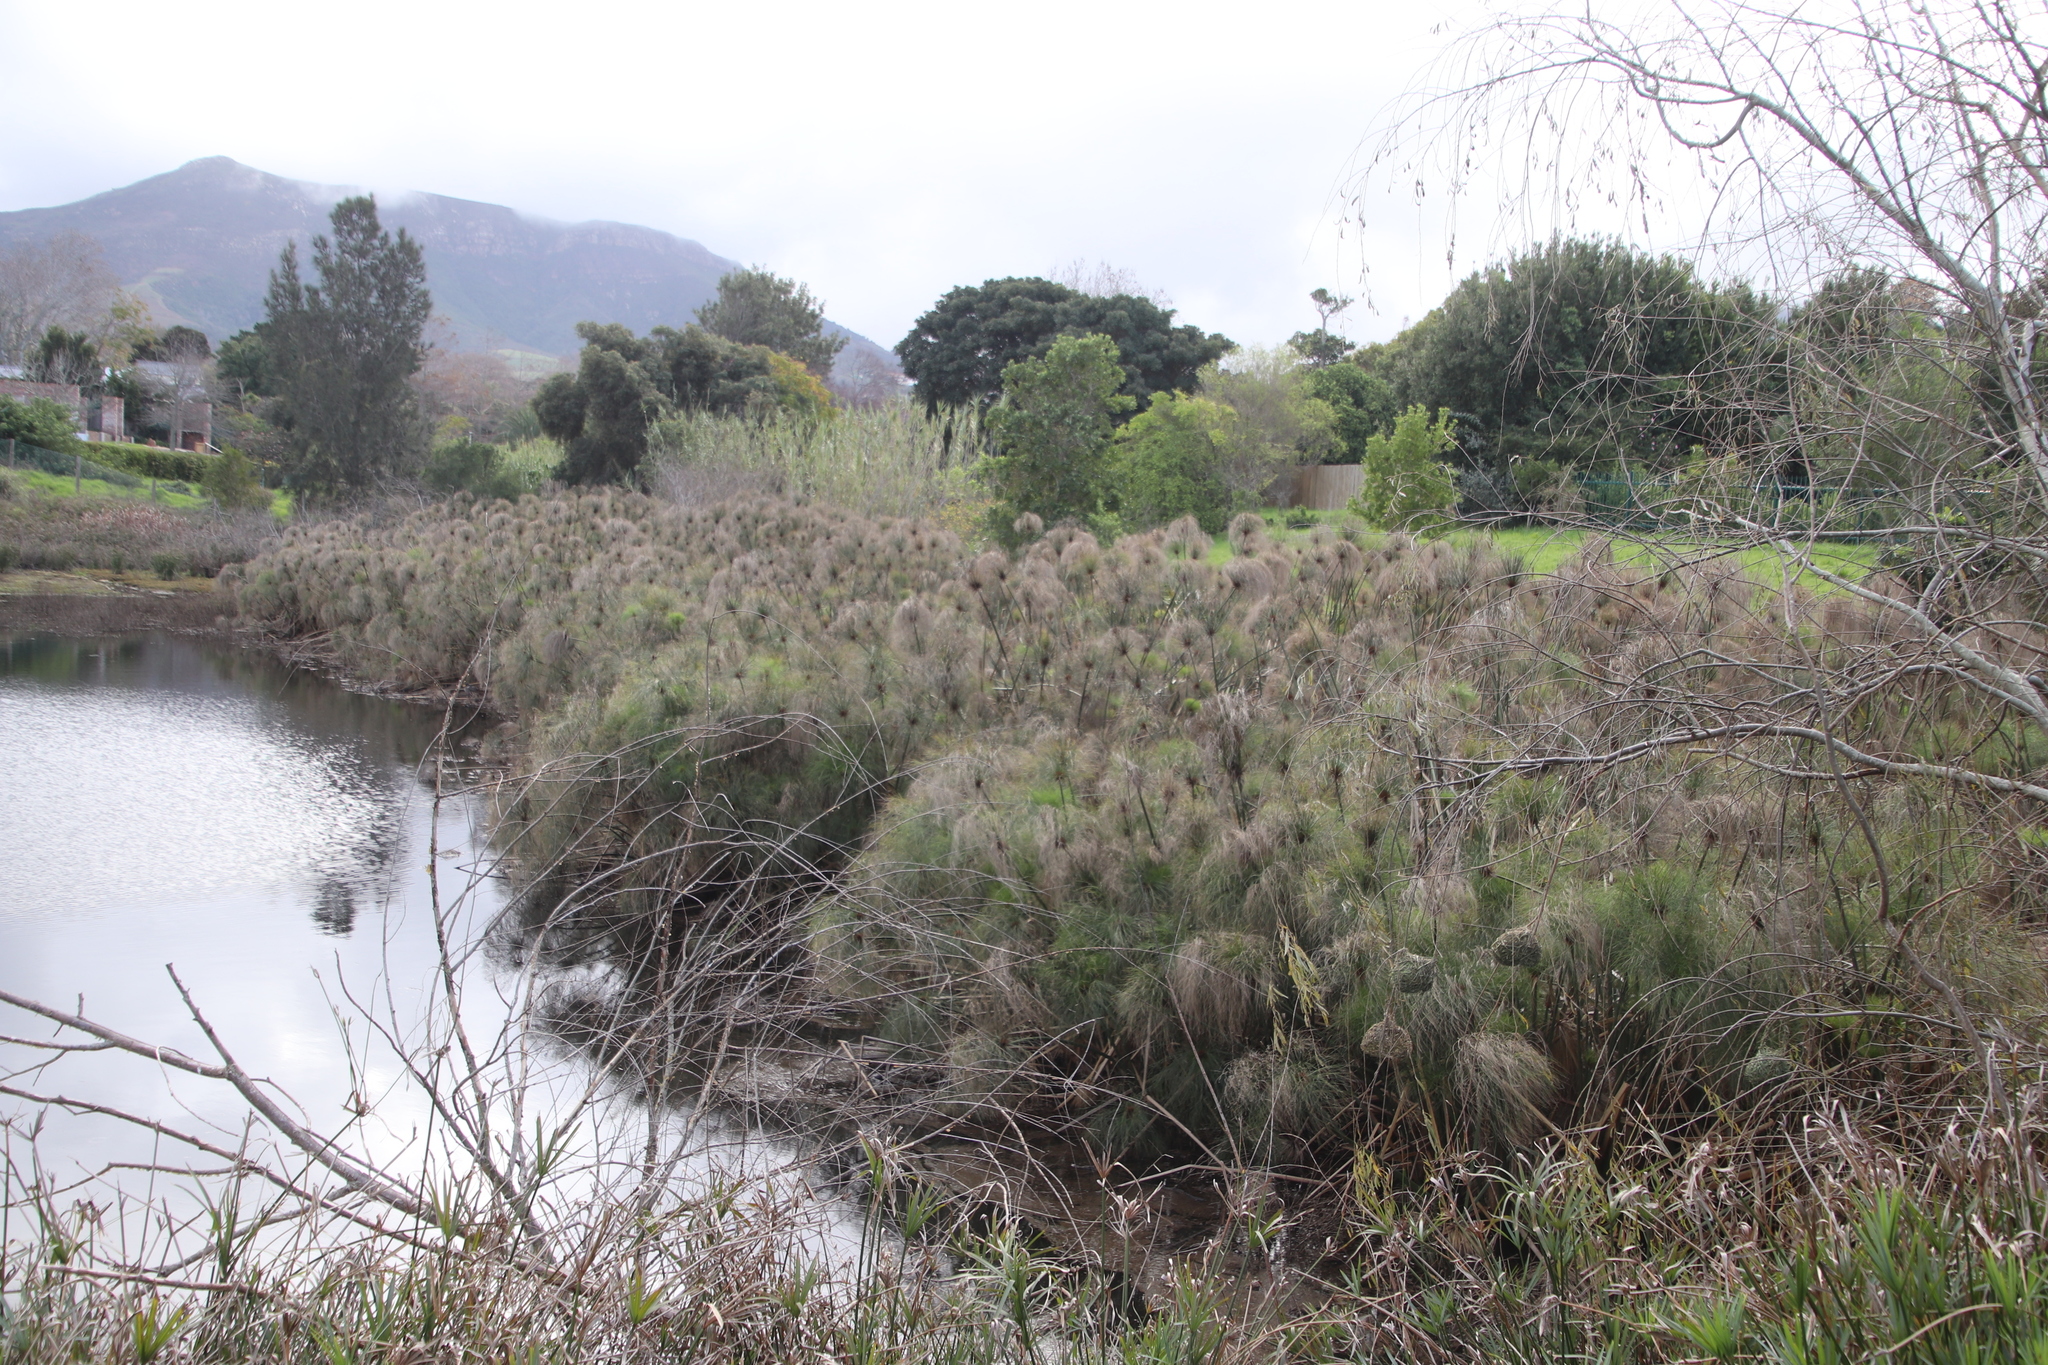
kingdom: Plantae
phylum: Tracheophyta
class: Liliopsida
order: Poales
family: Cyperaceae
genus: Cyperus
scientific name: Cyperus papyrus
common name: Papyrus
